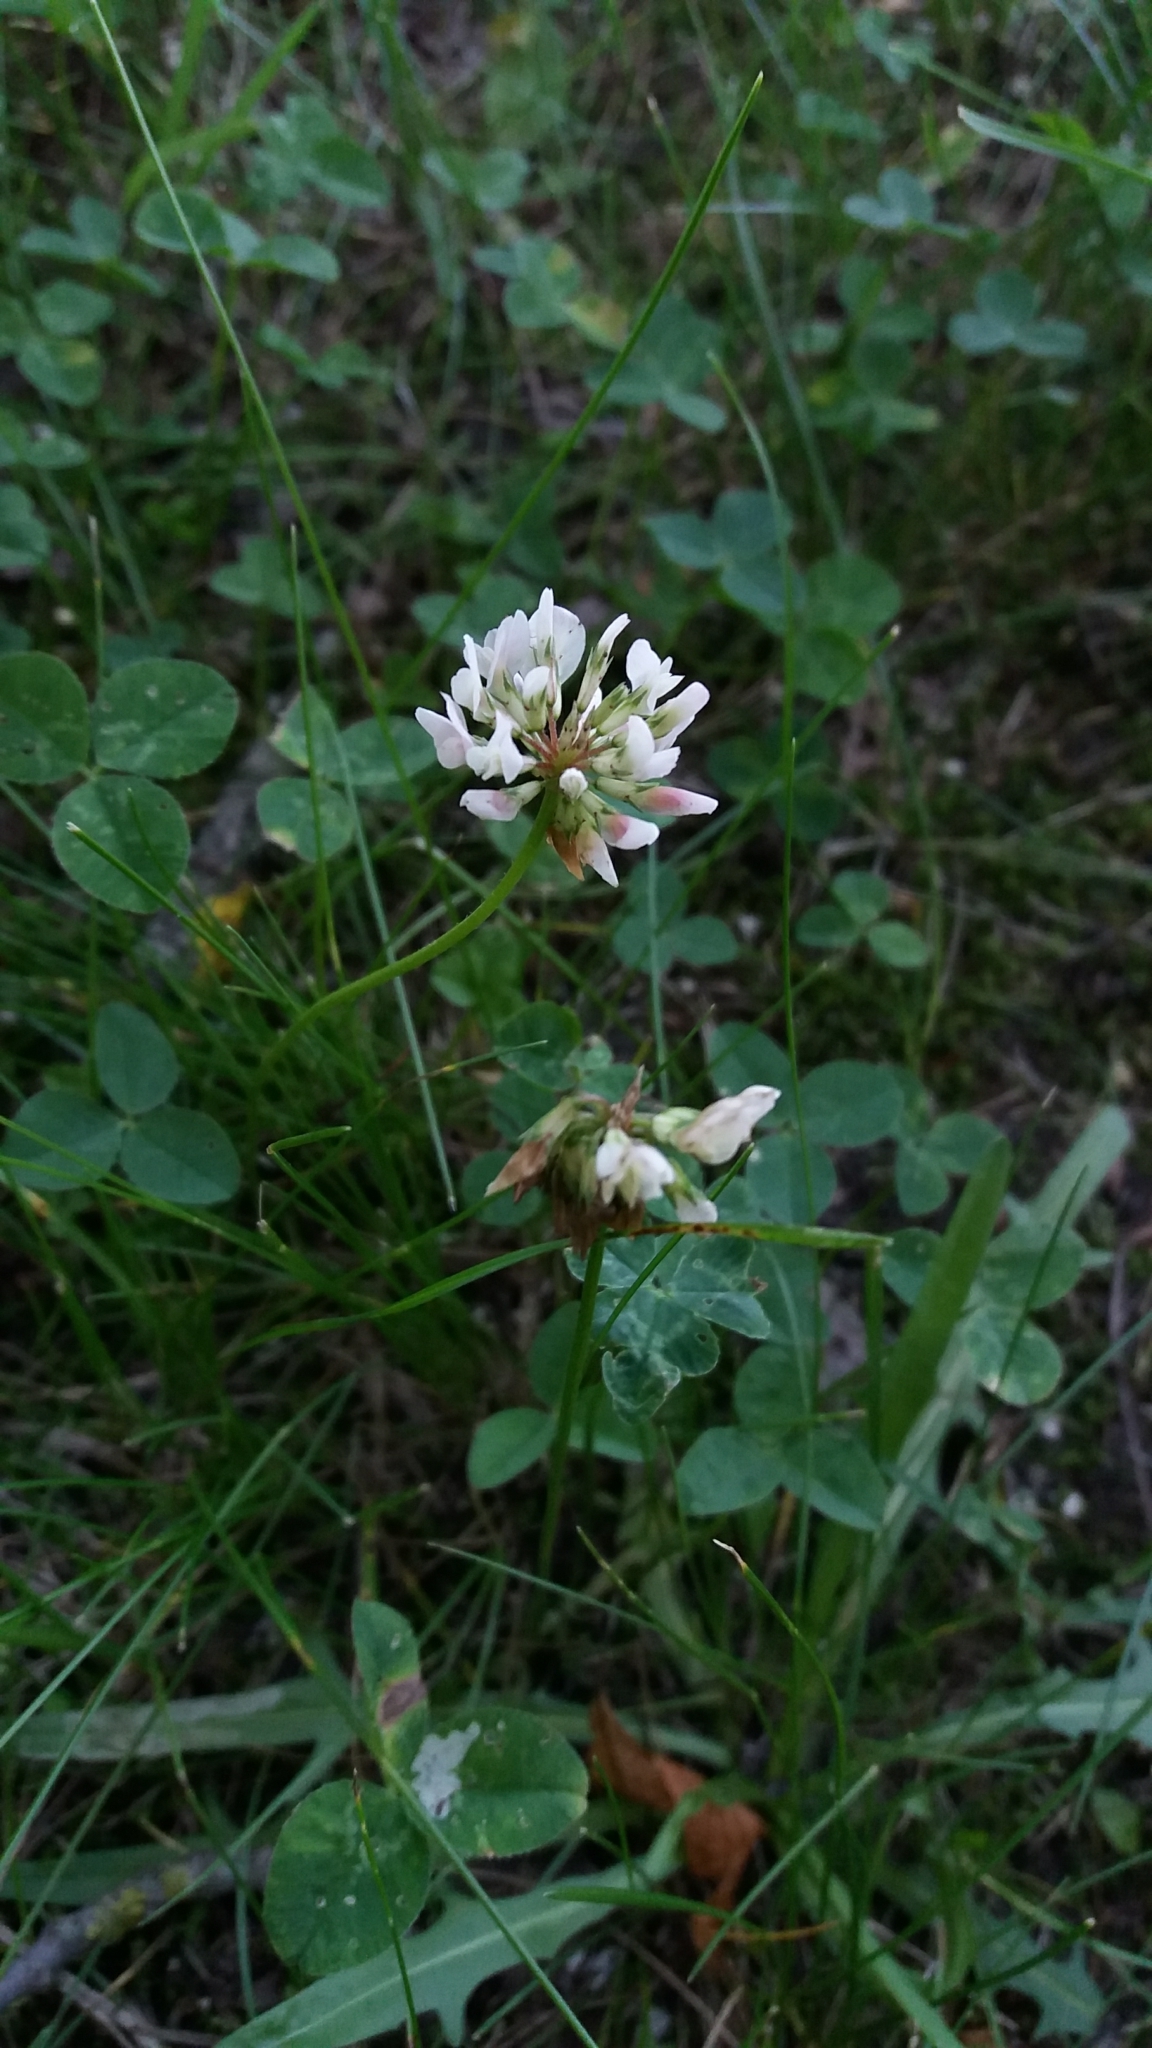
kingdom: Plantae
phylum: Tracheophyta
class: Magnoliopsida
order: Fabales
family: Fabaceae
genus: Trifolium
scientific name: Trifolium repens
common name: White clover
